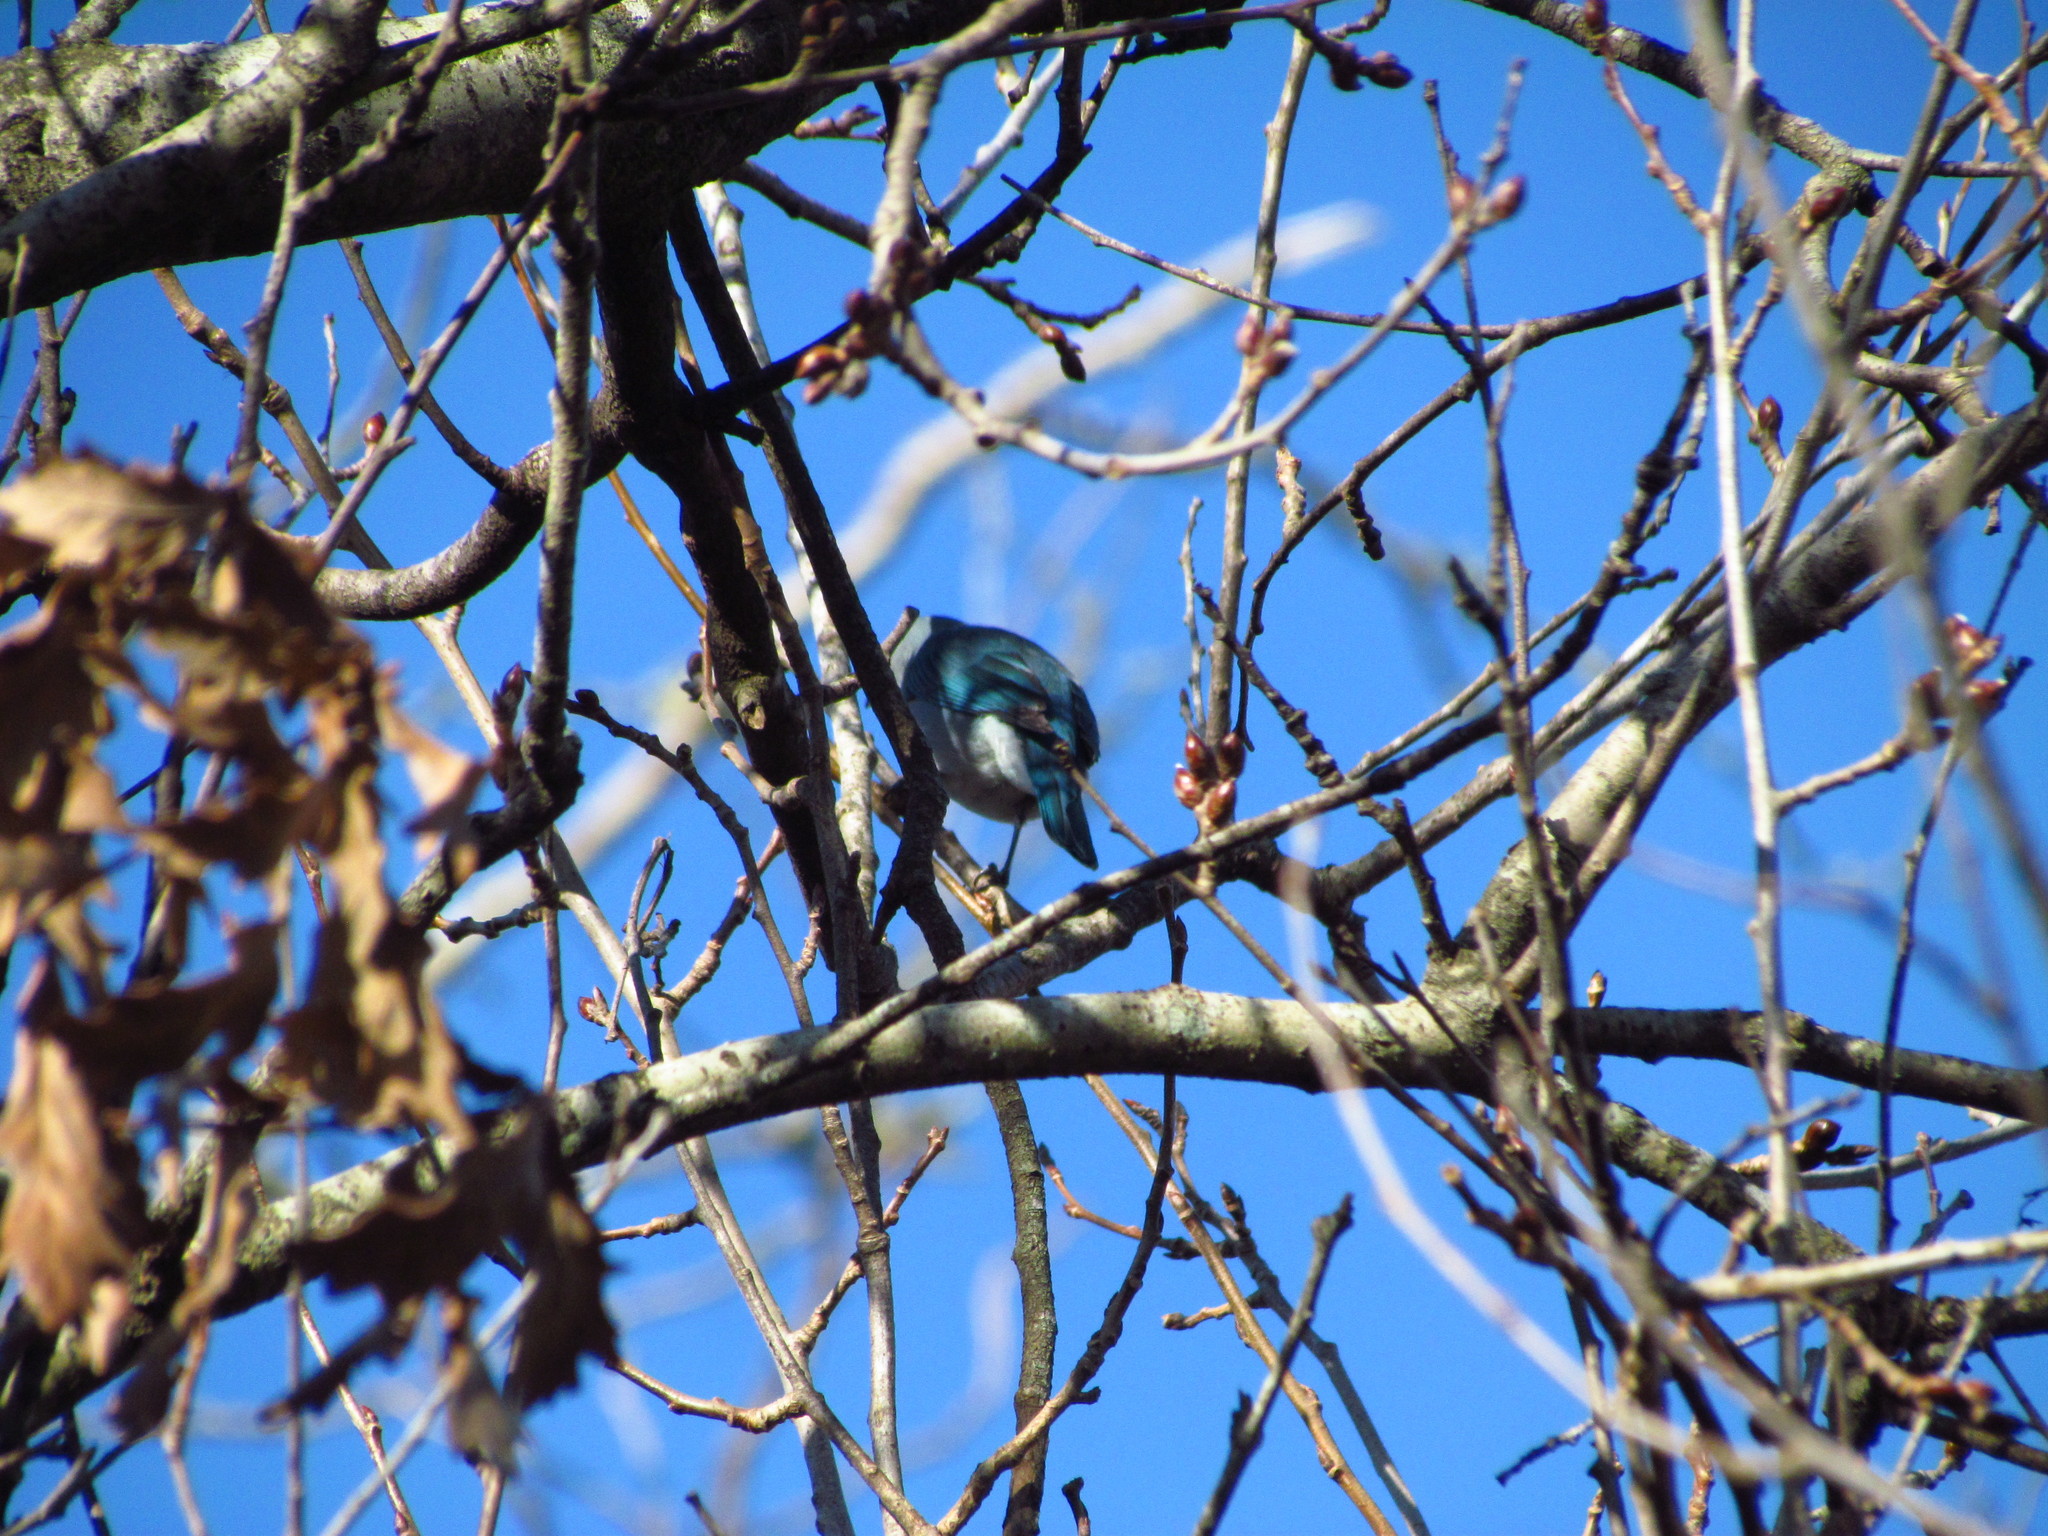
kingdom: Animalia
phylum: Chordata
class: Aves
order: Passeriformes
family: Thraupidae
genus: Thraupis
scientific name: Thraupis sayaca
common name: Sayaca tanager
